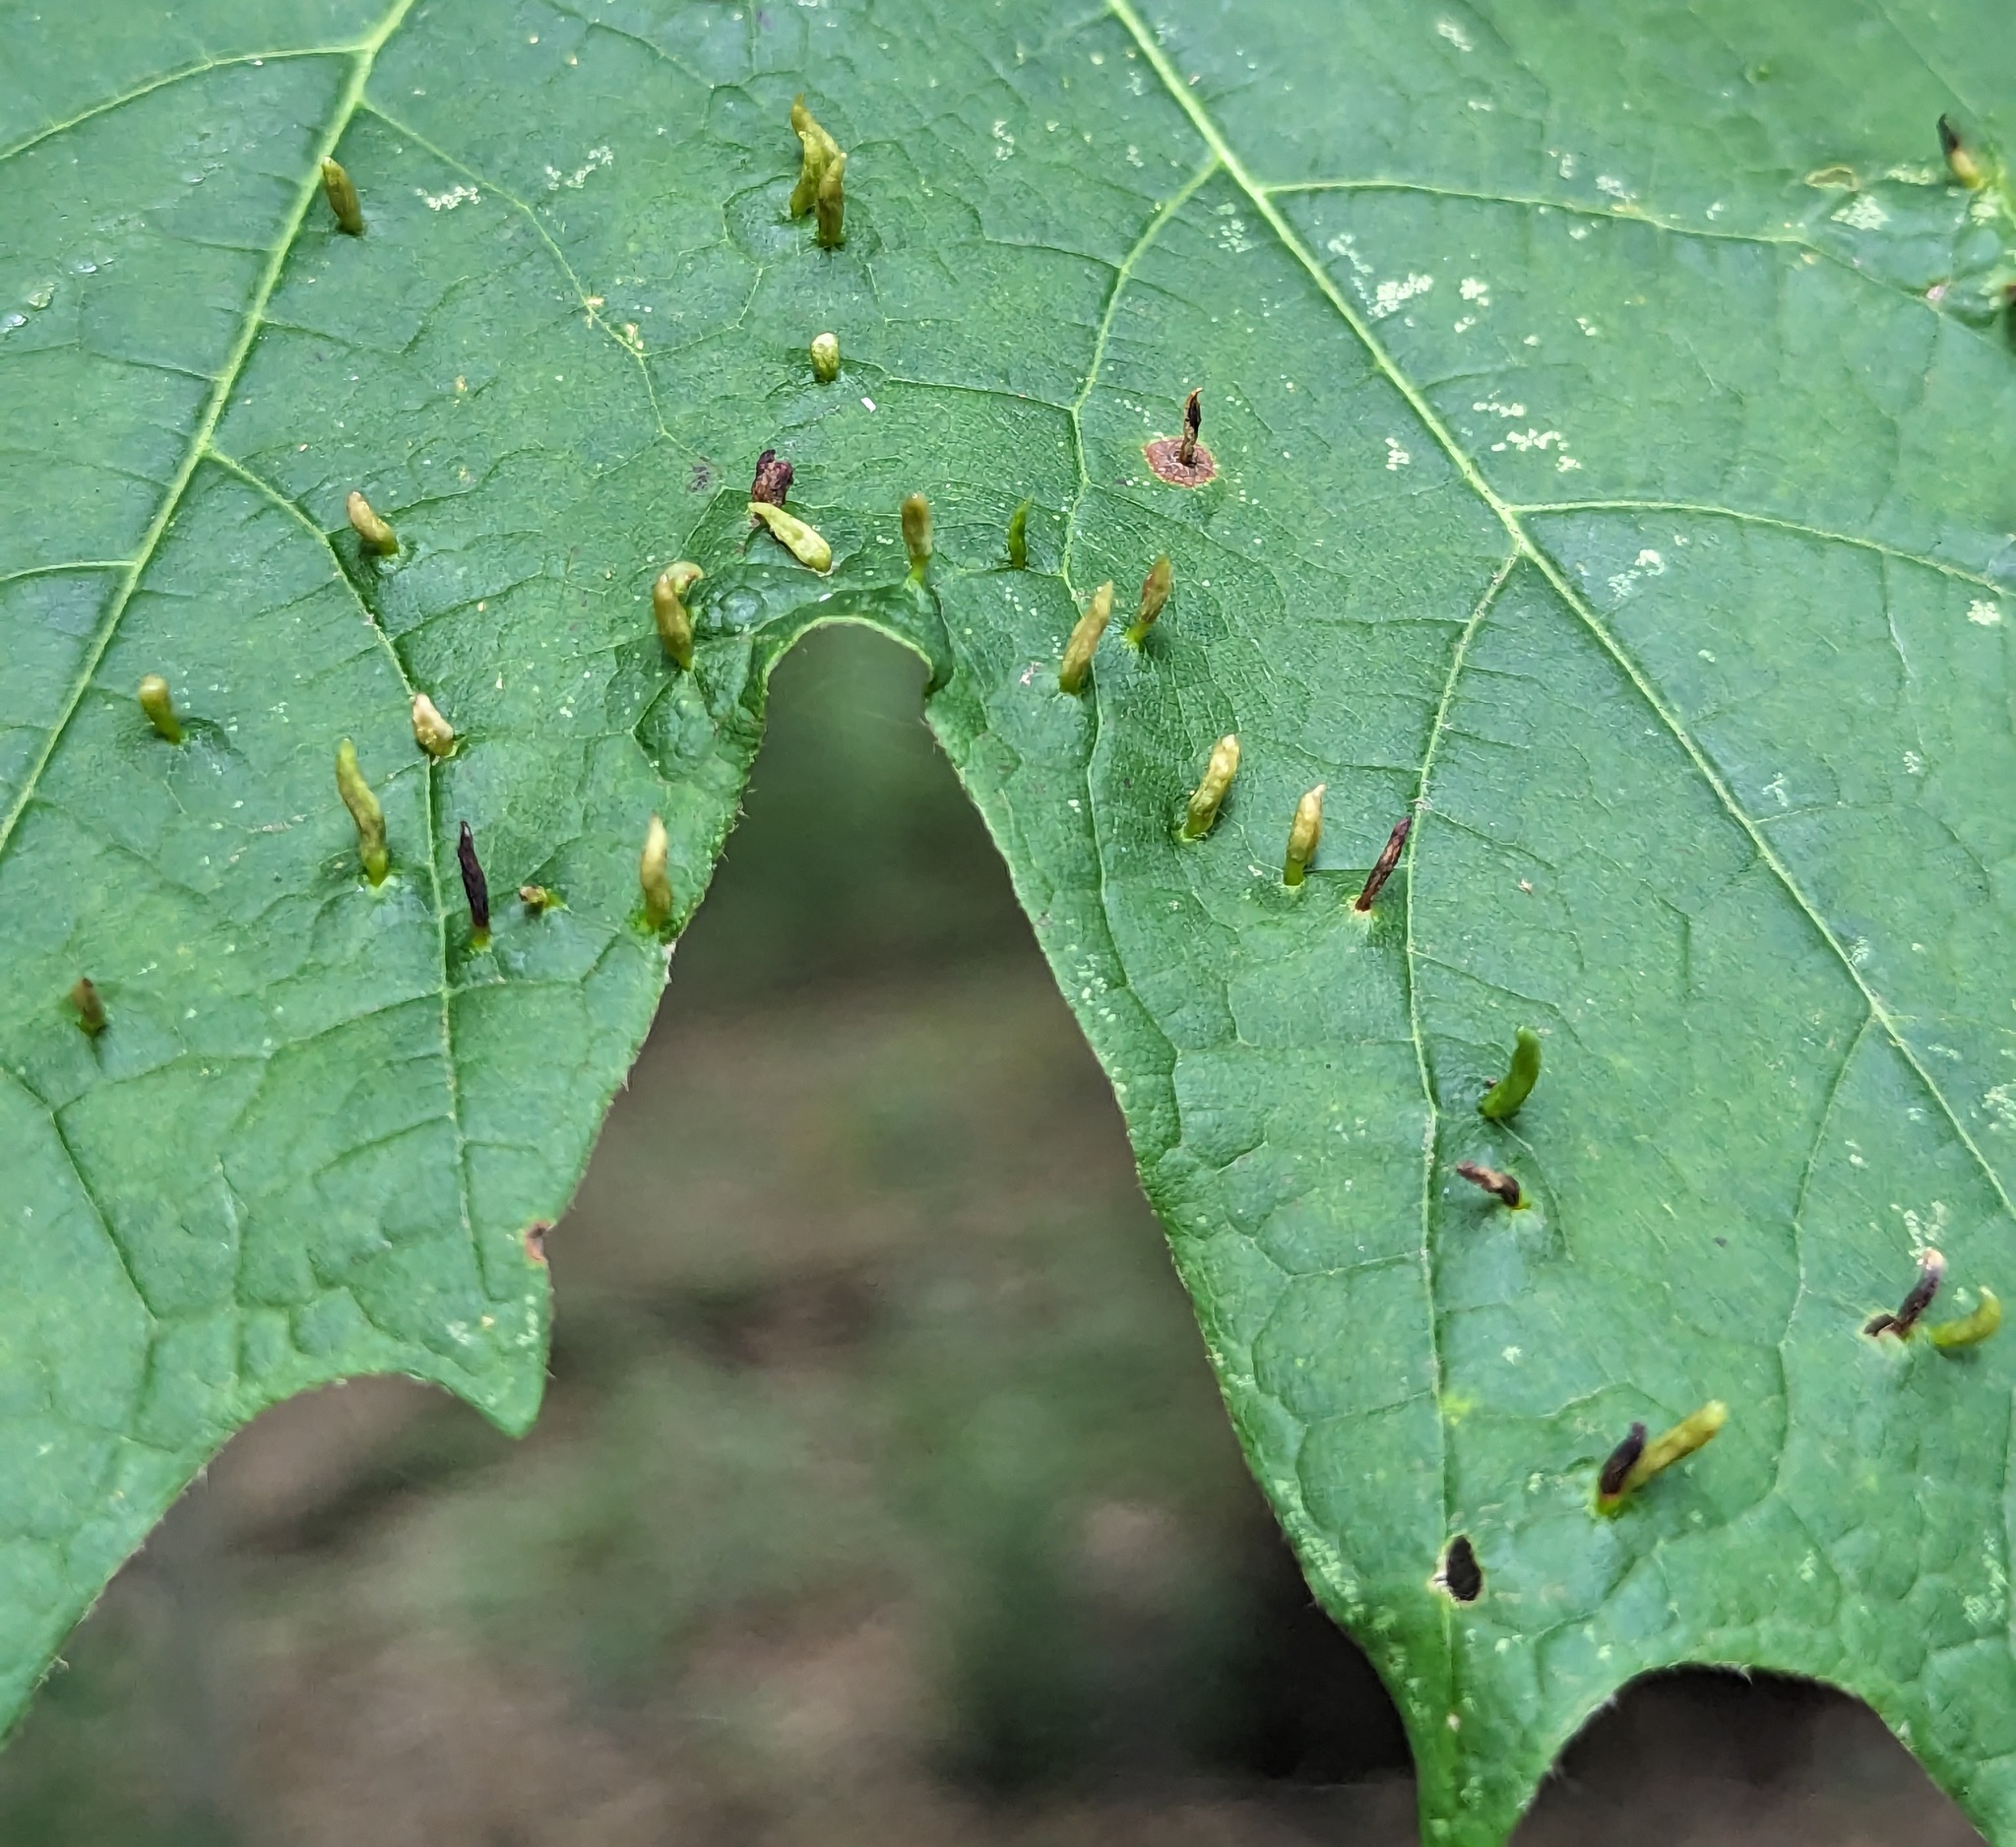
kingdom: Animalia
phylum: Arthropoda
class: Arachnida
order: Trombidiformes
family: Eriophyidae
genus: Vasates
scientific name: Vasates aceriscrumena
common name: Maple spindle gall mite
